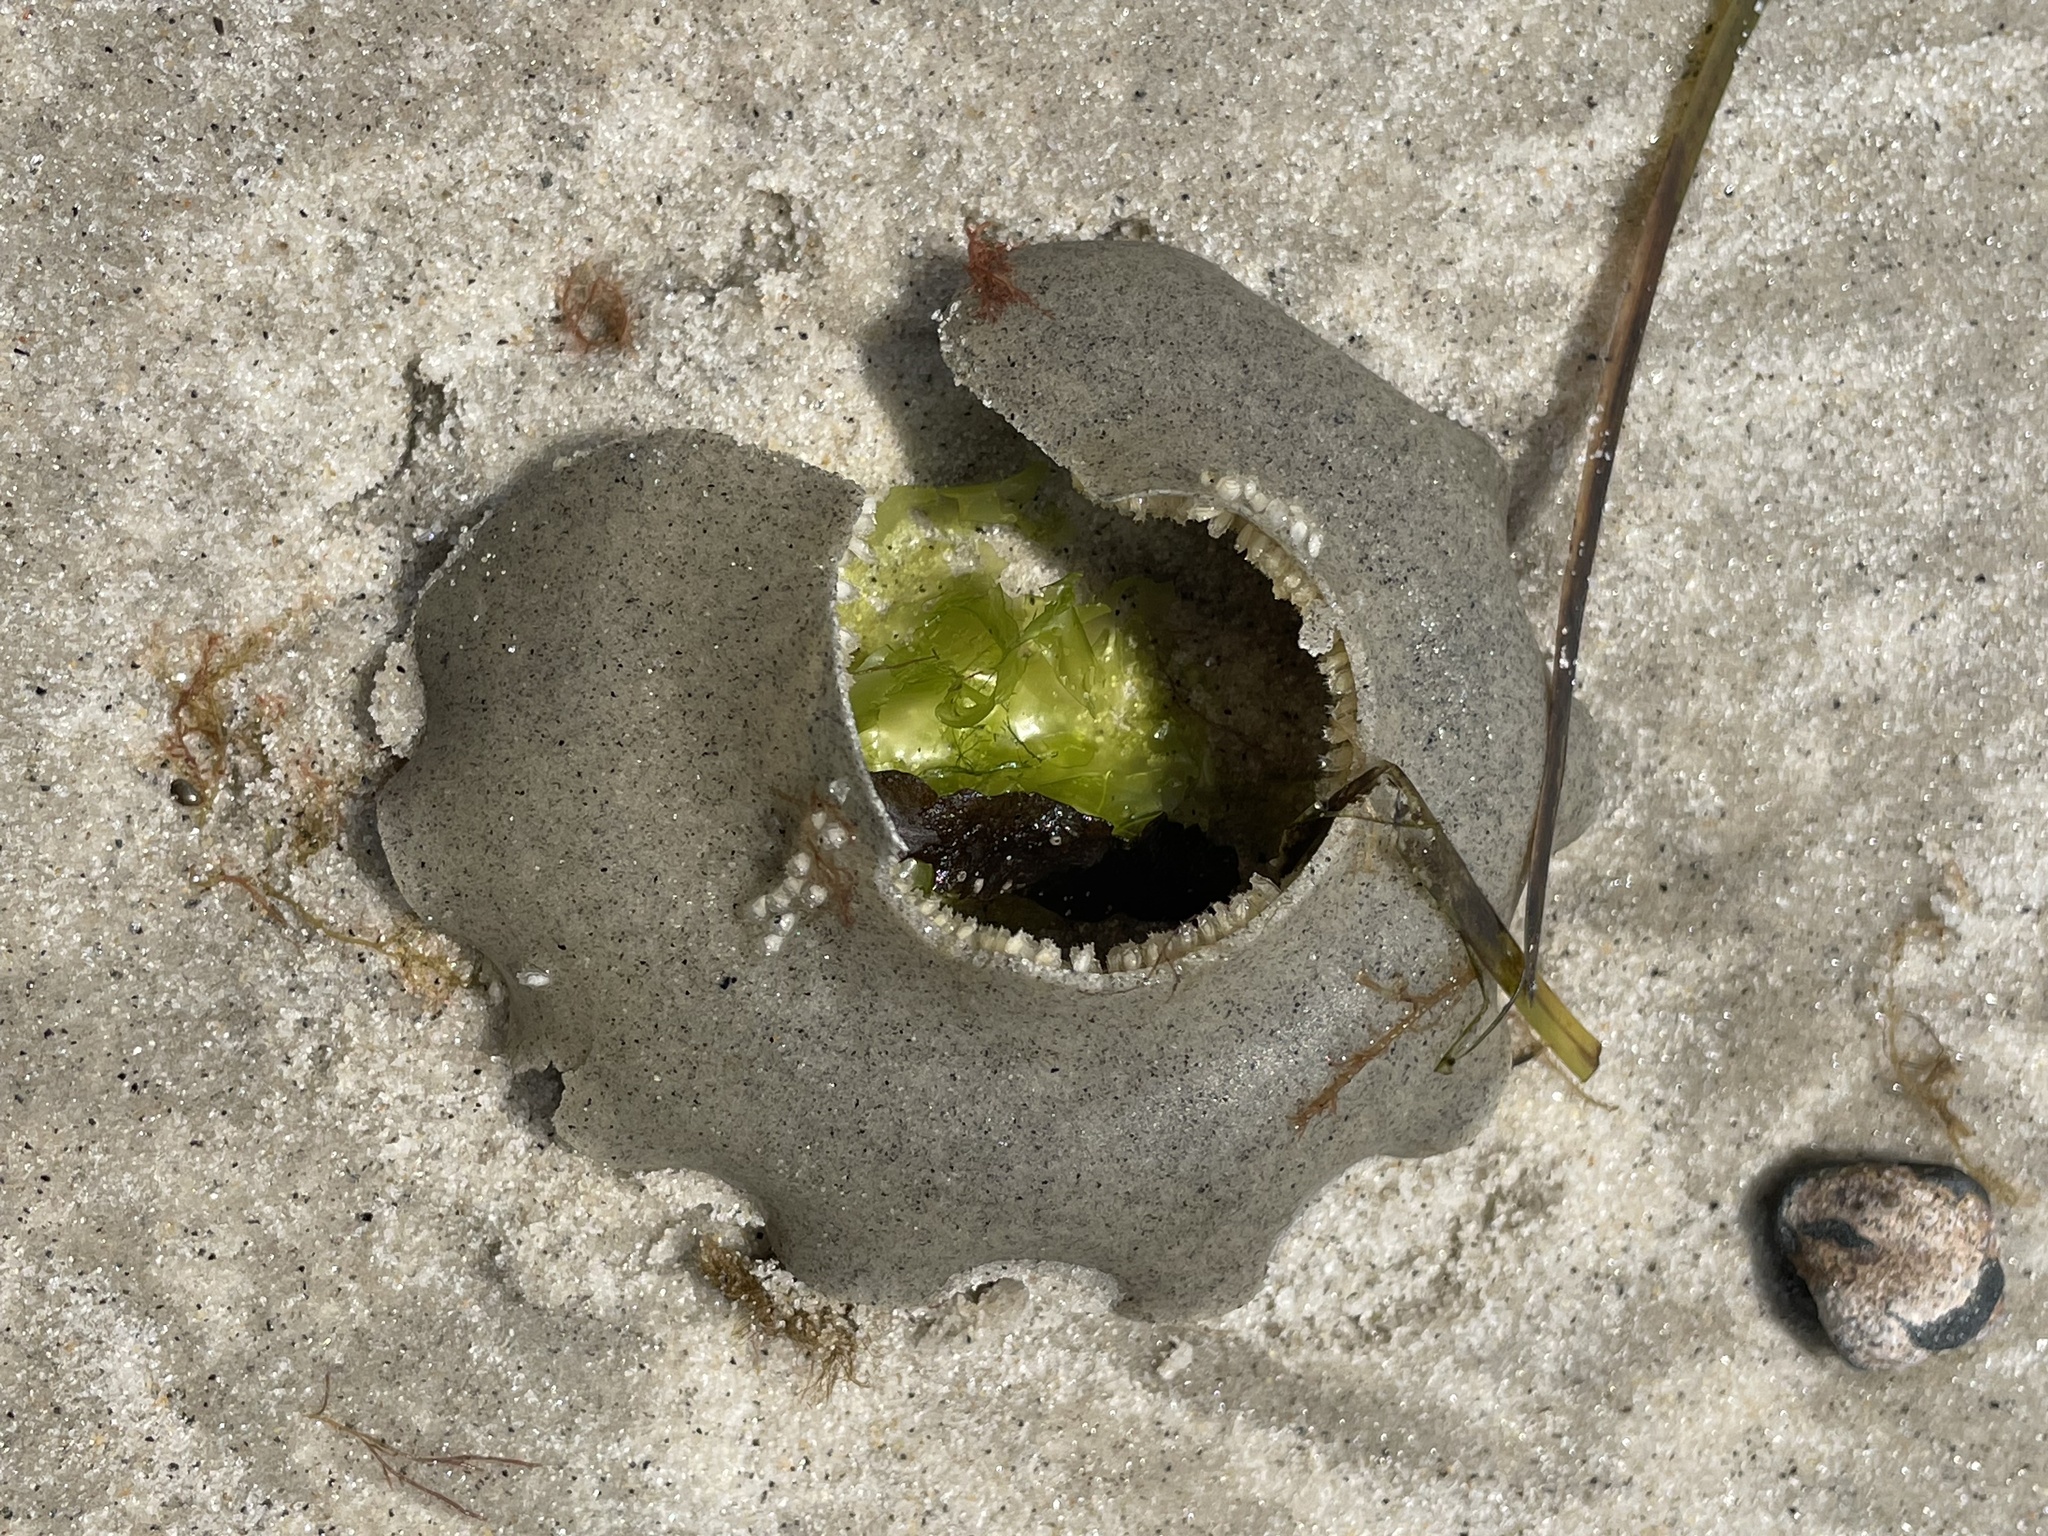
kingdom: Animalia
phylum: Mollusca
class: Gastropoda
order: Neogastropoda
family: Nassariidae
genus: Ilyanassa
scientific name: Ilyanassa obsoleta
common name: Eastern mudsnail
